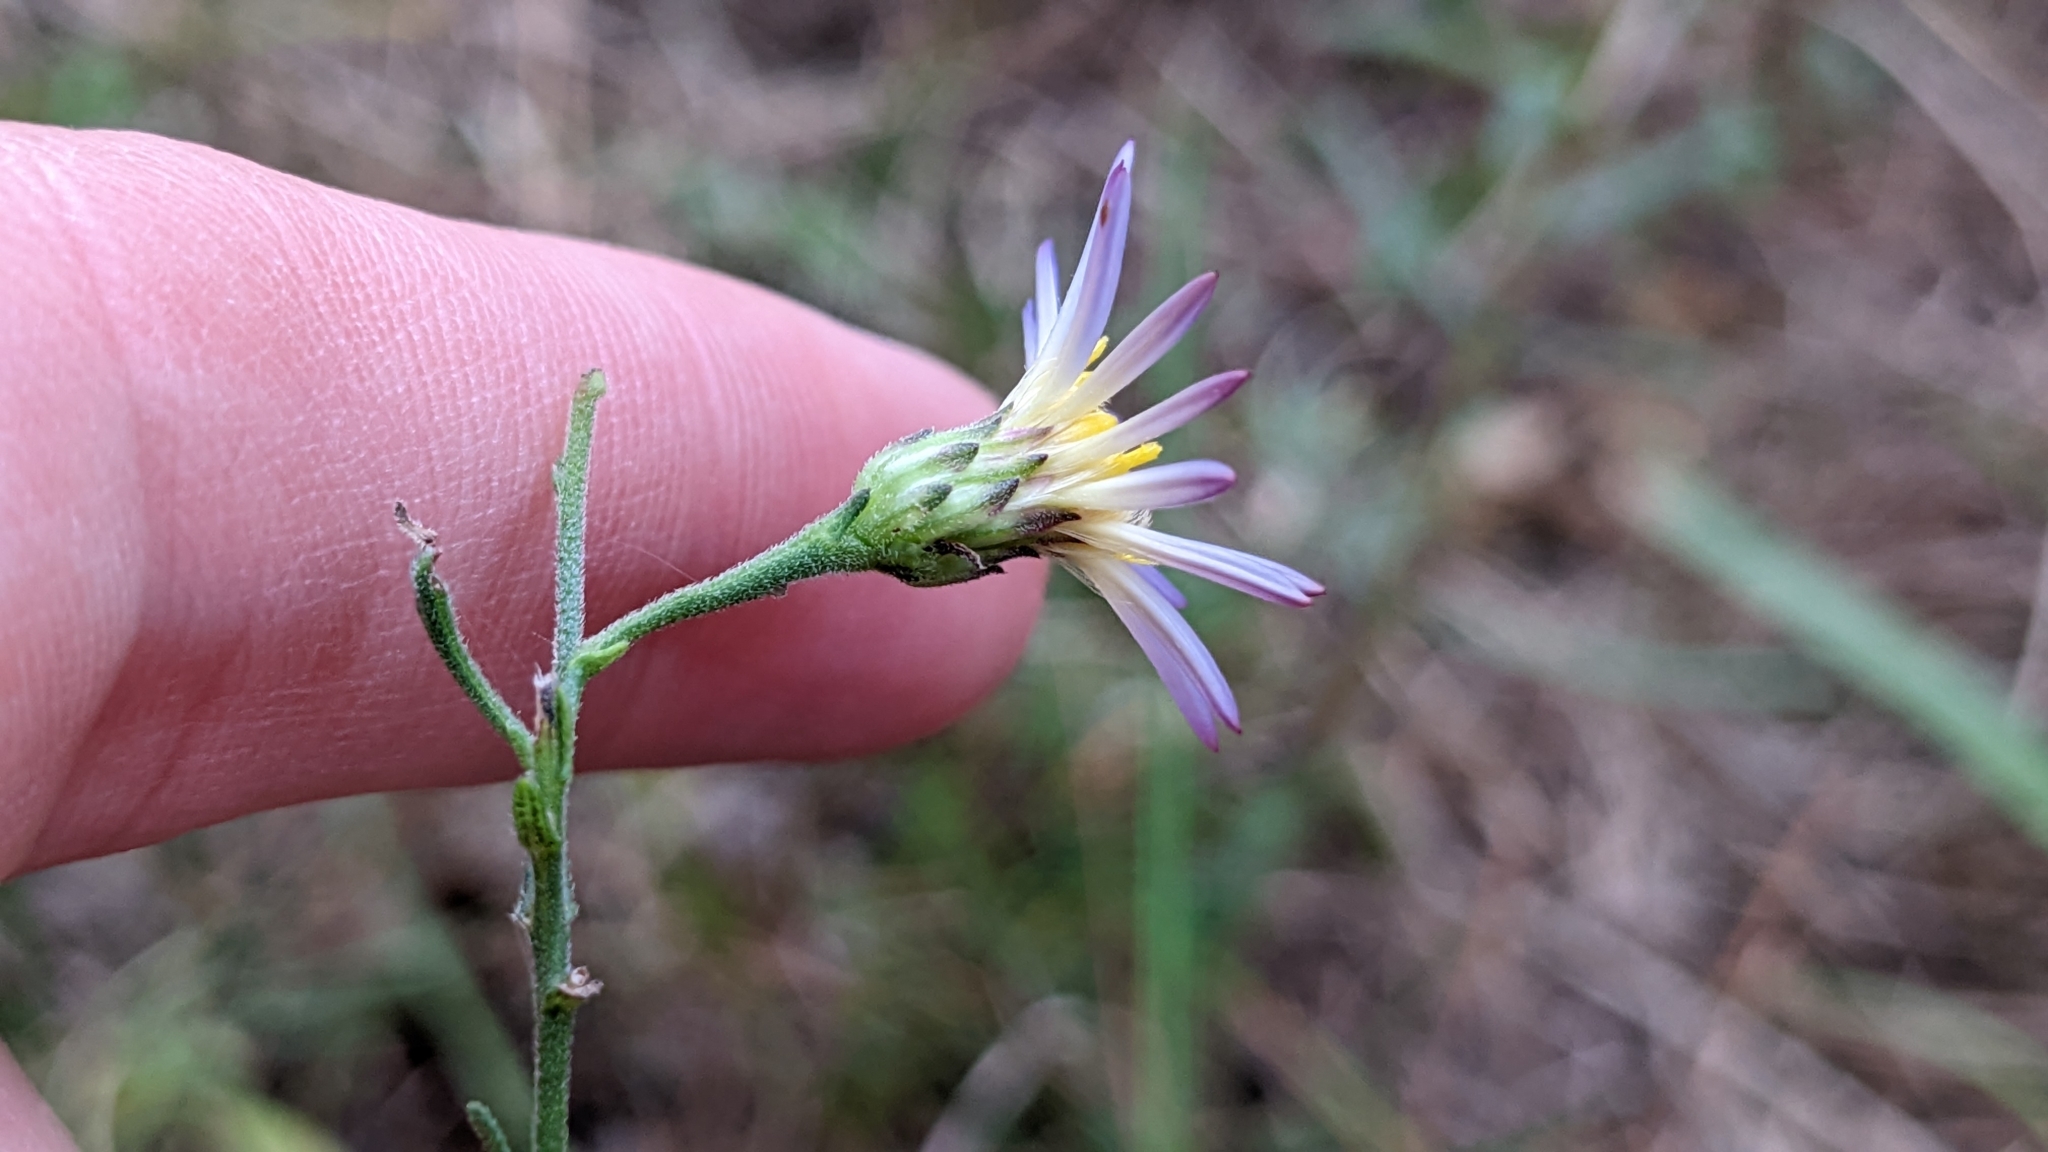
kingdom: Plantae
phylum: Tracheophyta
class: Magnoliopsida
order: Asterales
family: Asteraceae
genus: Symphyotrichum
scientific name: Symphyotrichum patens
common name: Late purple aster
